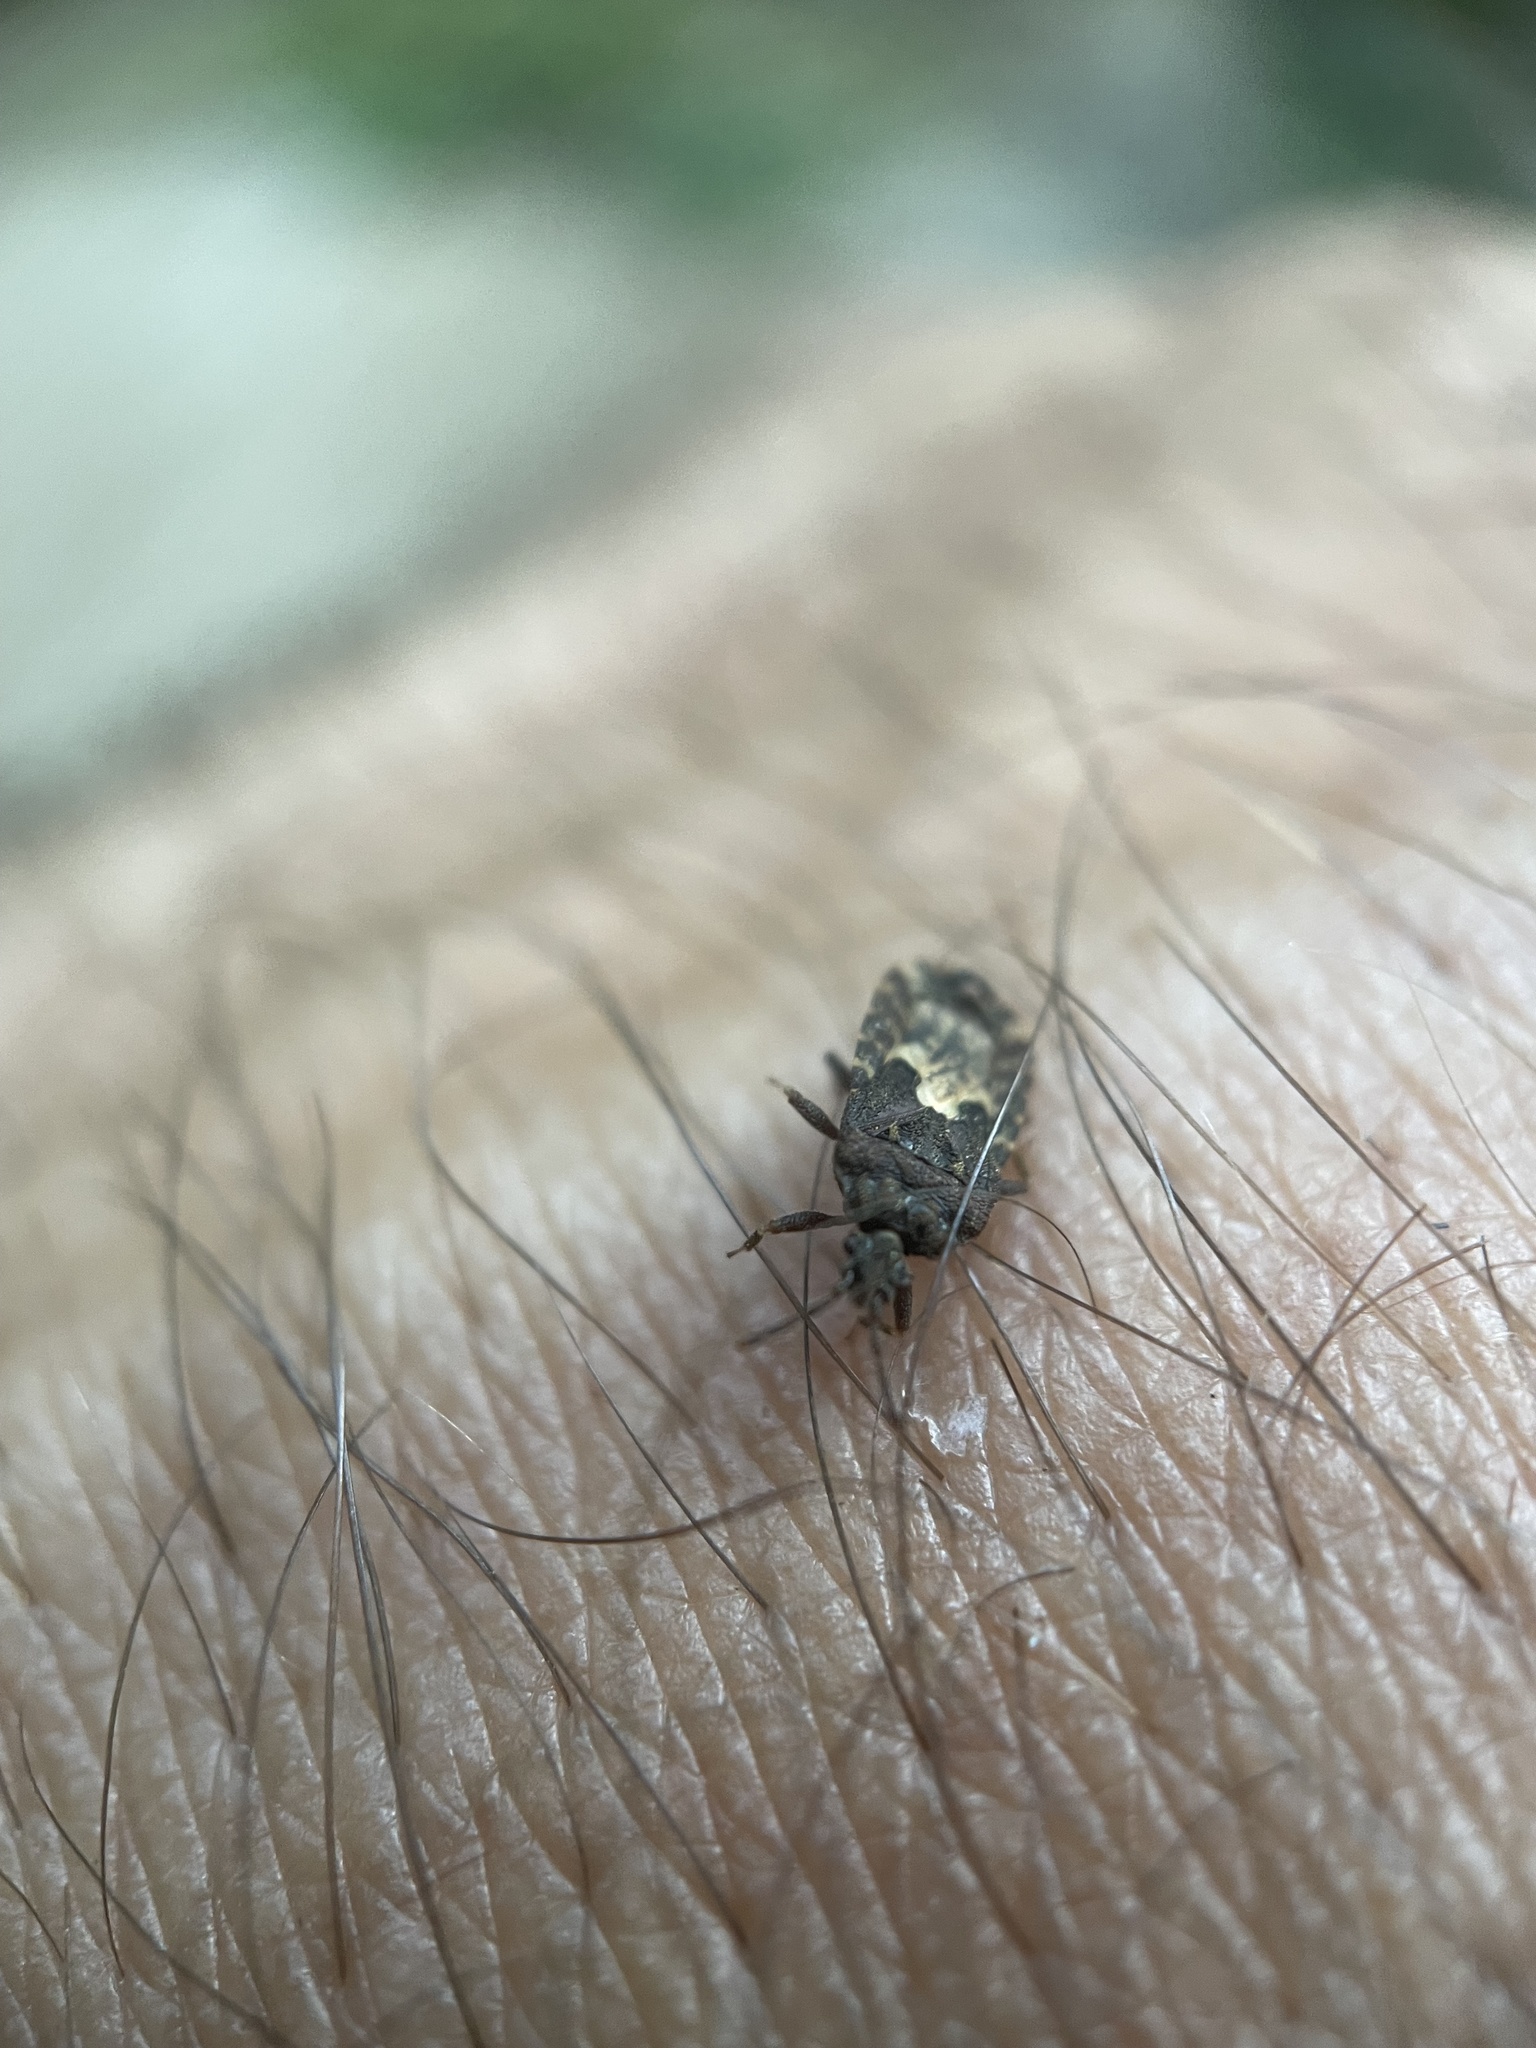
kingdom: Animalia
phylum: Arthropoda
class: Insecta
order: Hemiptera
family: Aradidae
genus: Mezira
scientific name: Mezira
